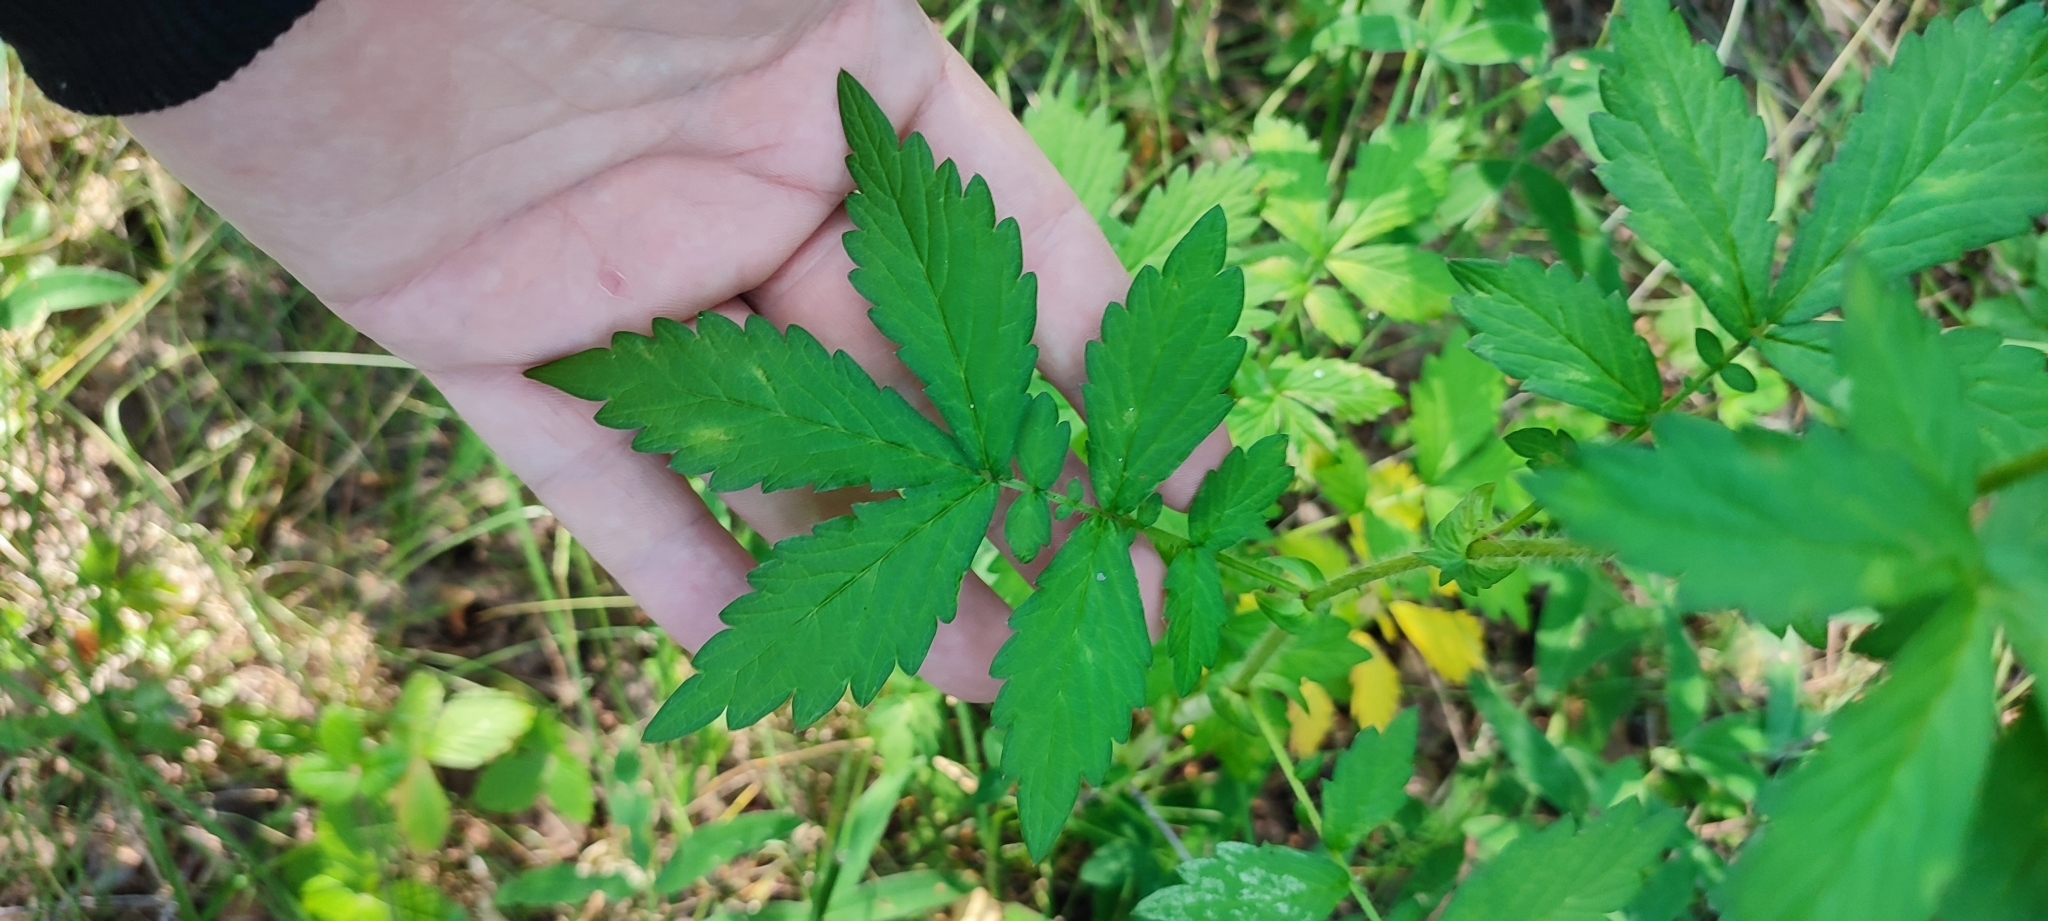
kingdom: Plantae
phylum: Tracheophyta
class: Magnoliopsida
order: Rosales
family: Rosaceae
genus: Agrimonia
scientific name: Agrimonia pilosa
